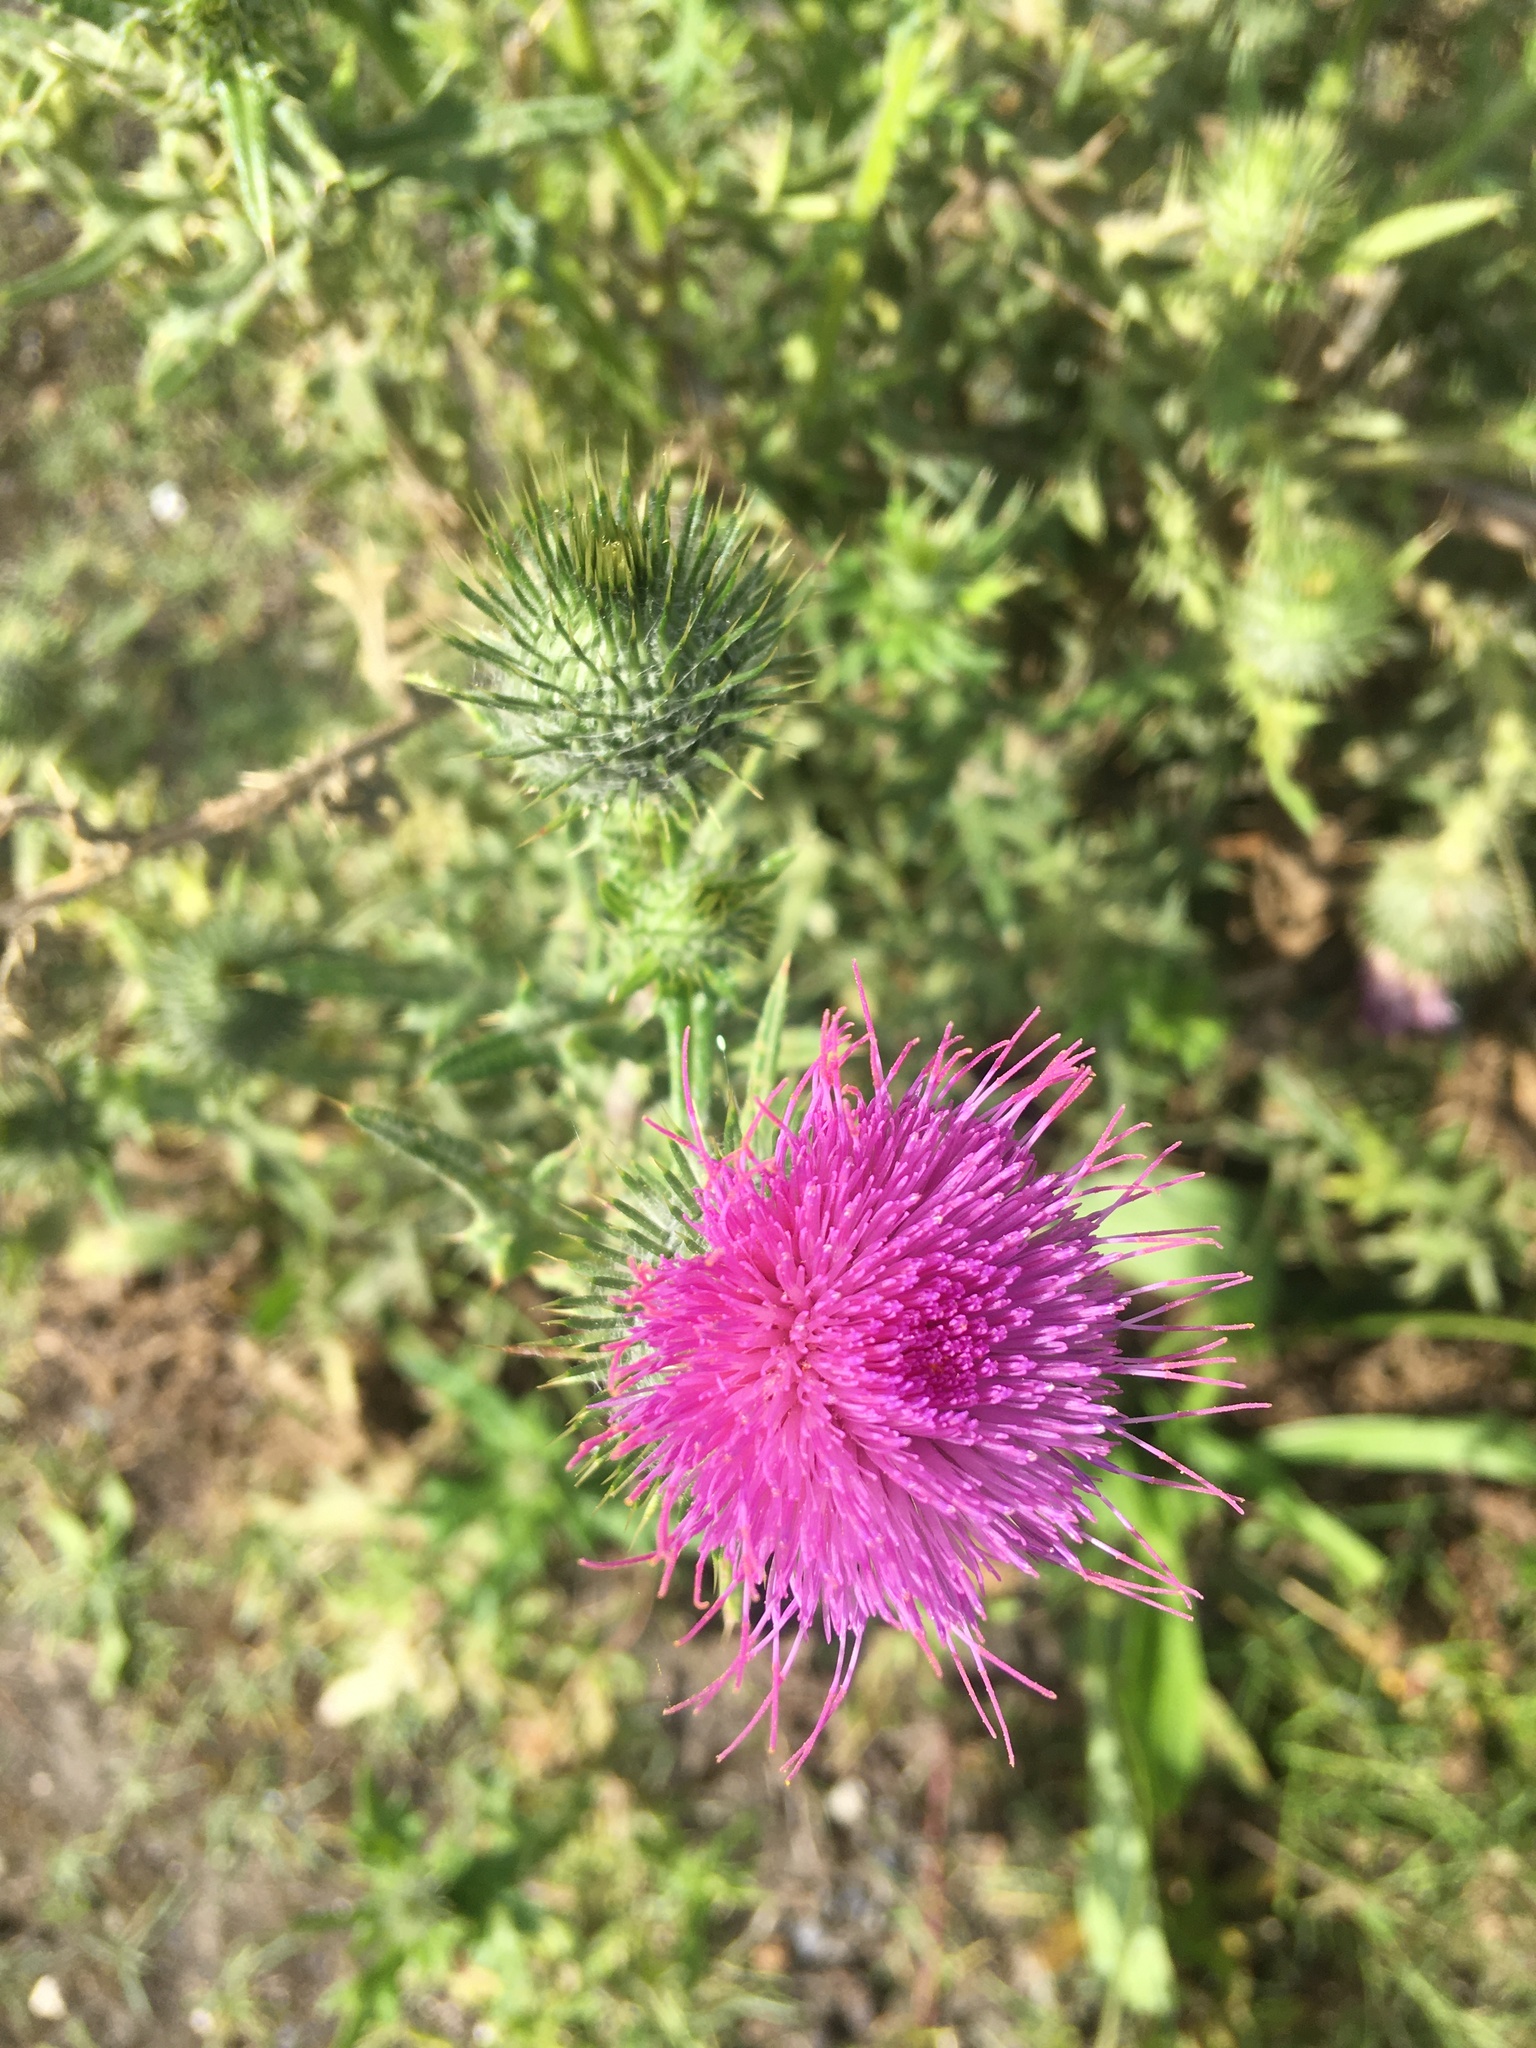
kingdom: Plantae
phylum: Tracheophyta
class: Magnoliopsida
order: Asterales
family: Asteraceae
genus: Cirsium
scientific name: Cirsium vulgare
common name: Bull thistle
